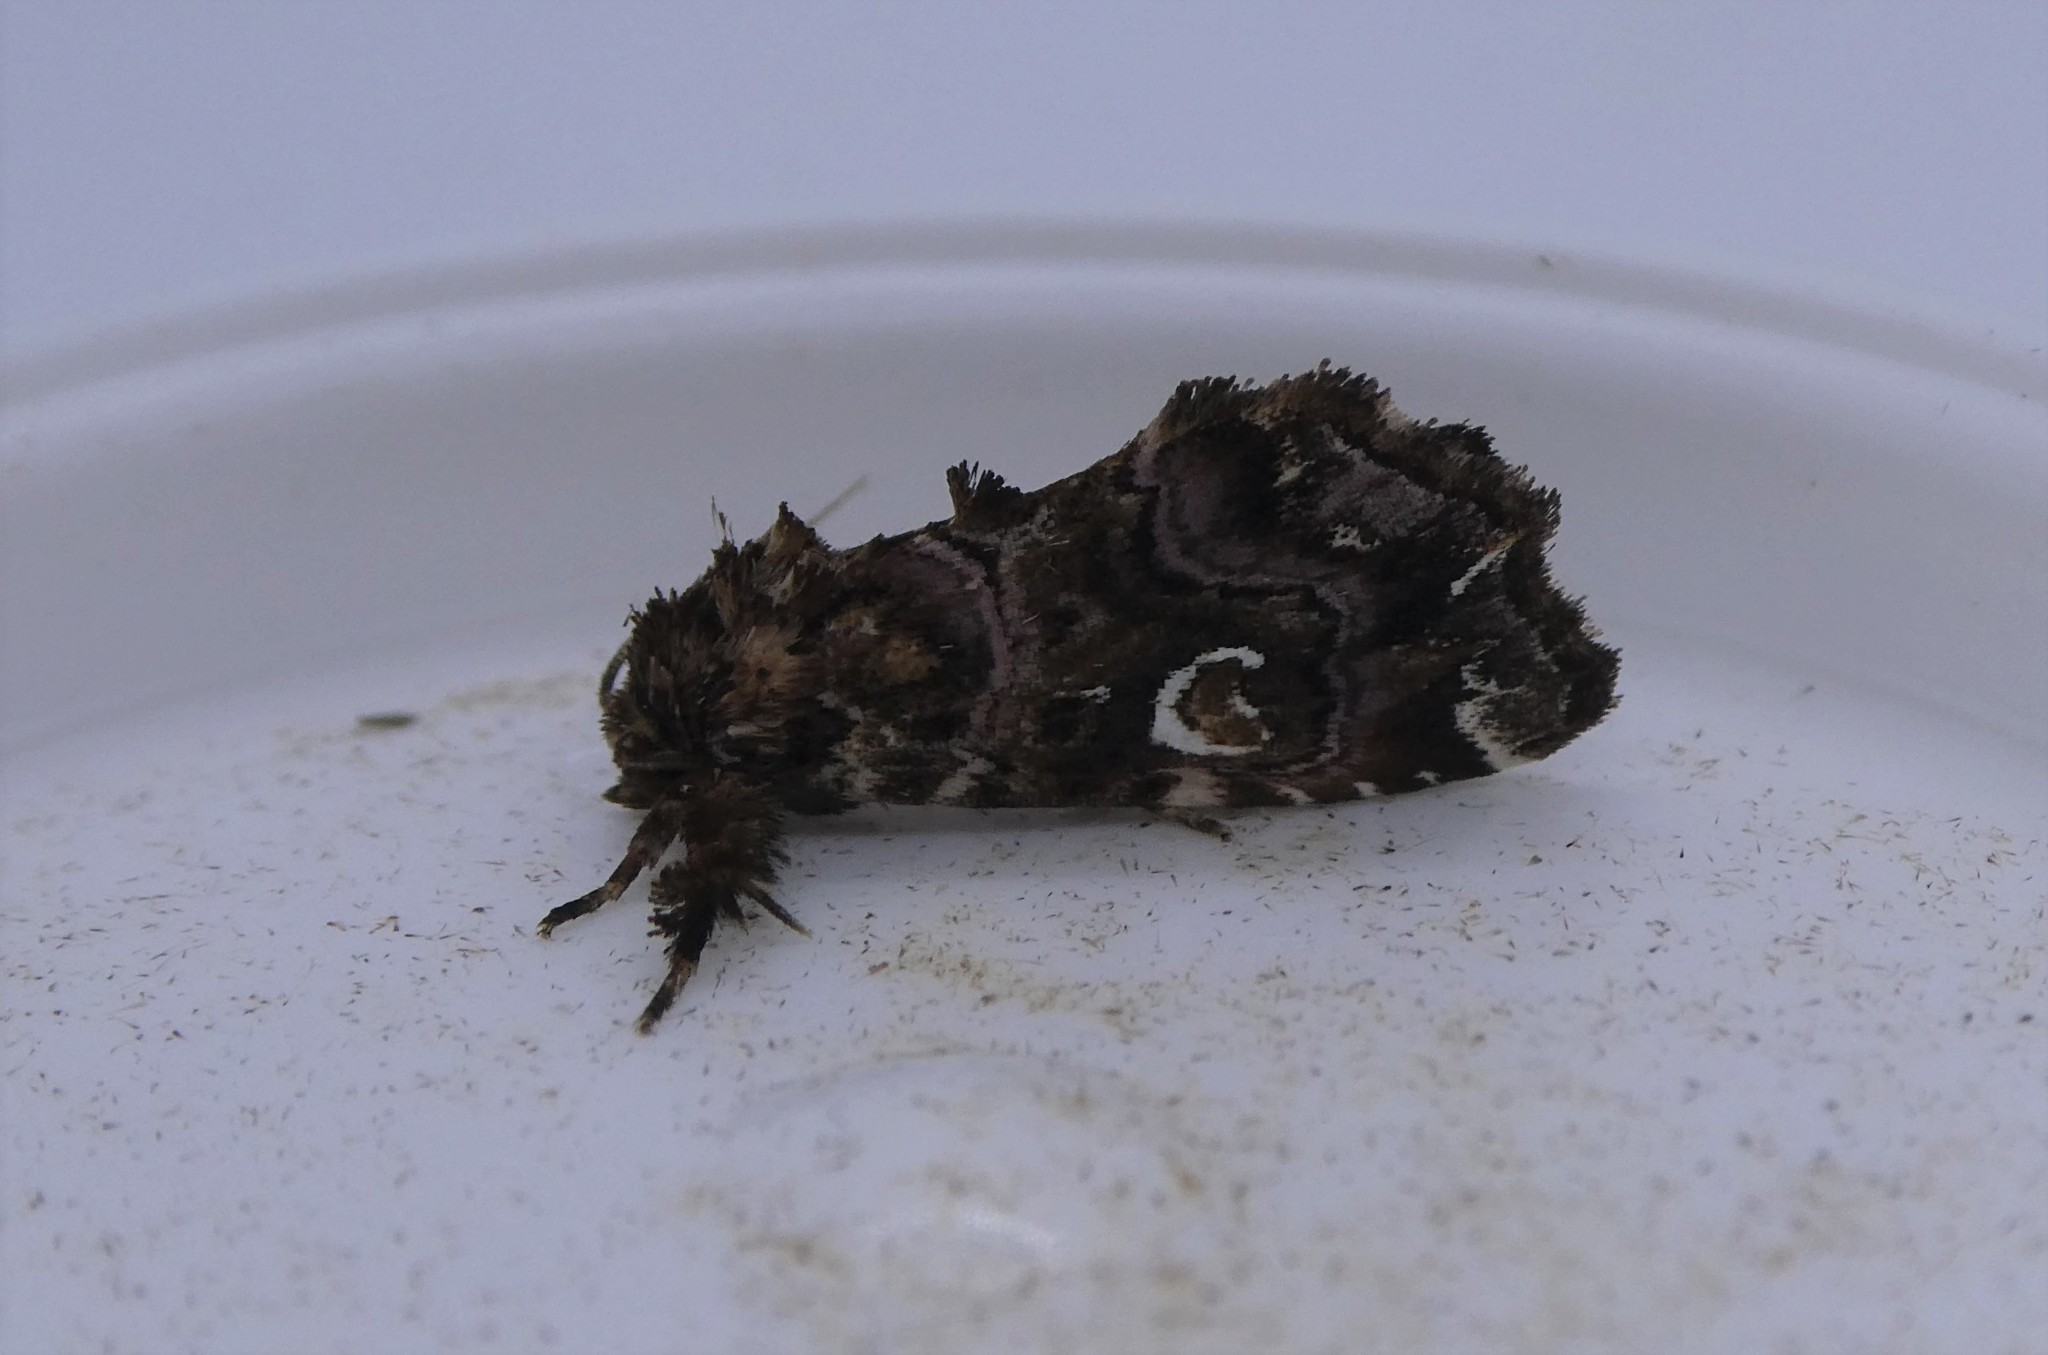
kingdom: Animalia
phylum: Arthropoda
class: Insecta
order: Lepidoptera
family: Noctuidae
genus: Callopistria
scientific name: Callopistria mollissima
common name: Pink-shaded fern moth
